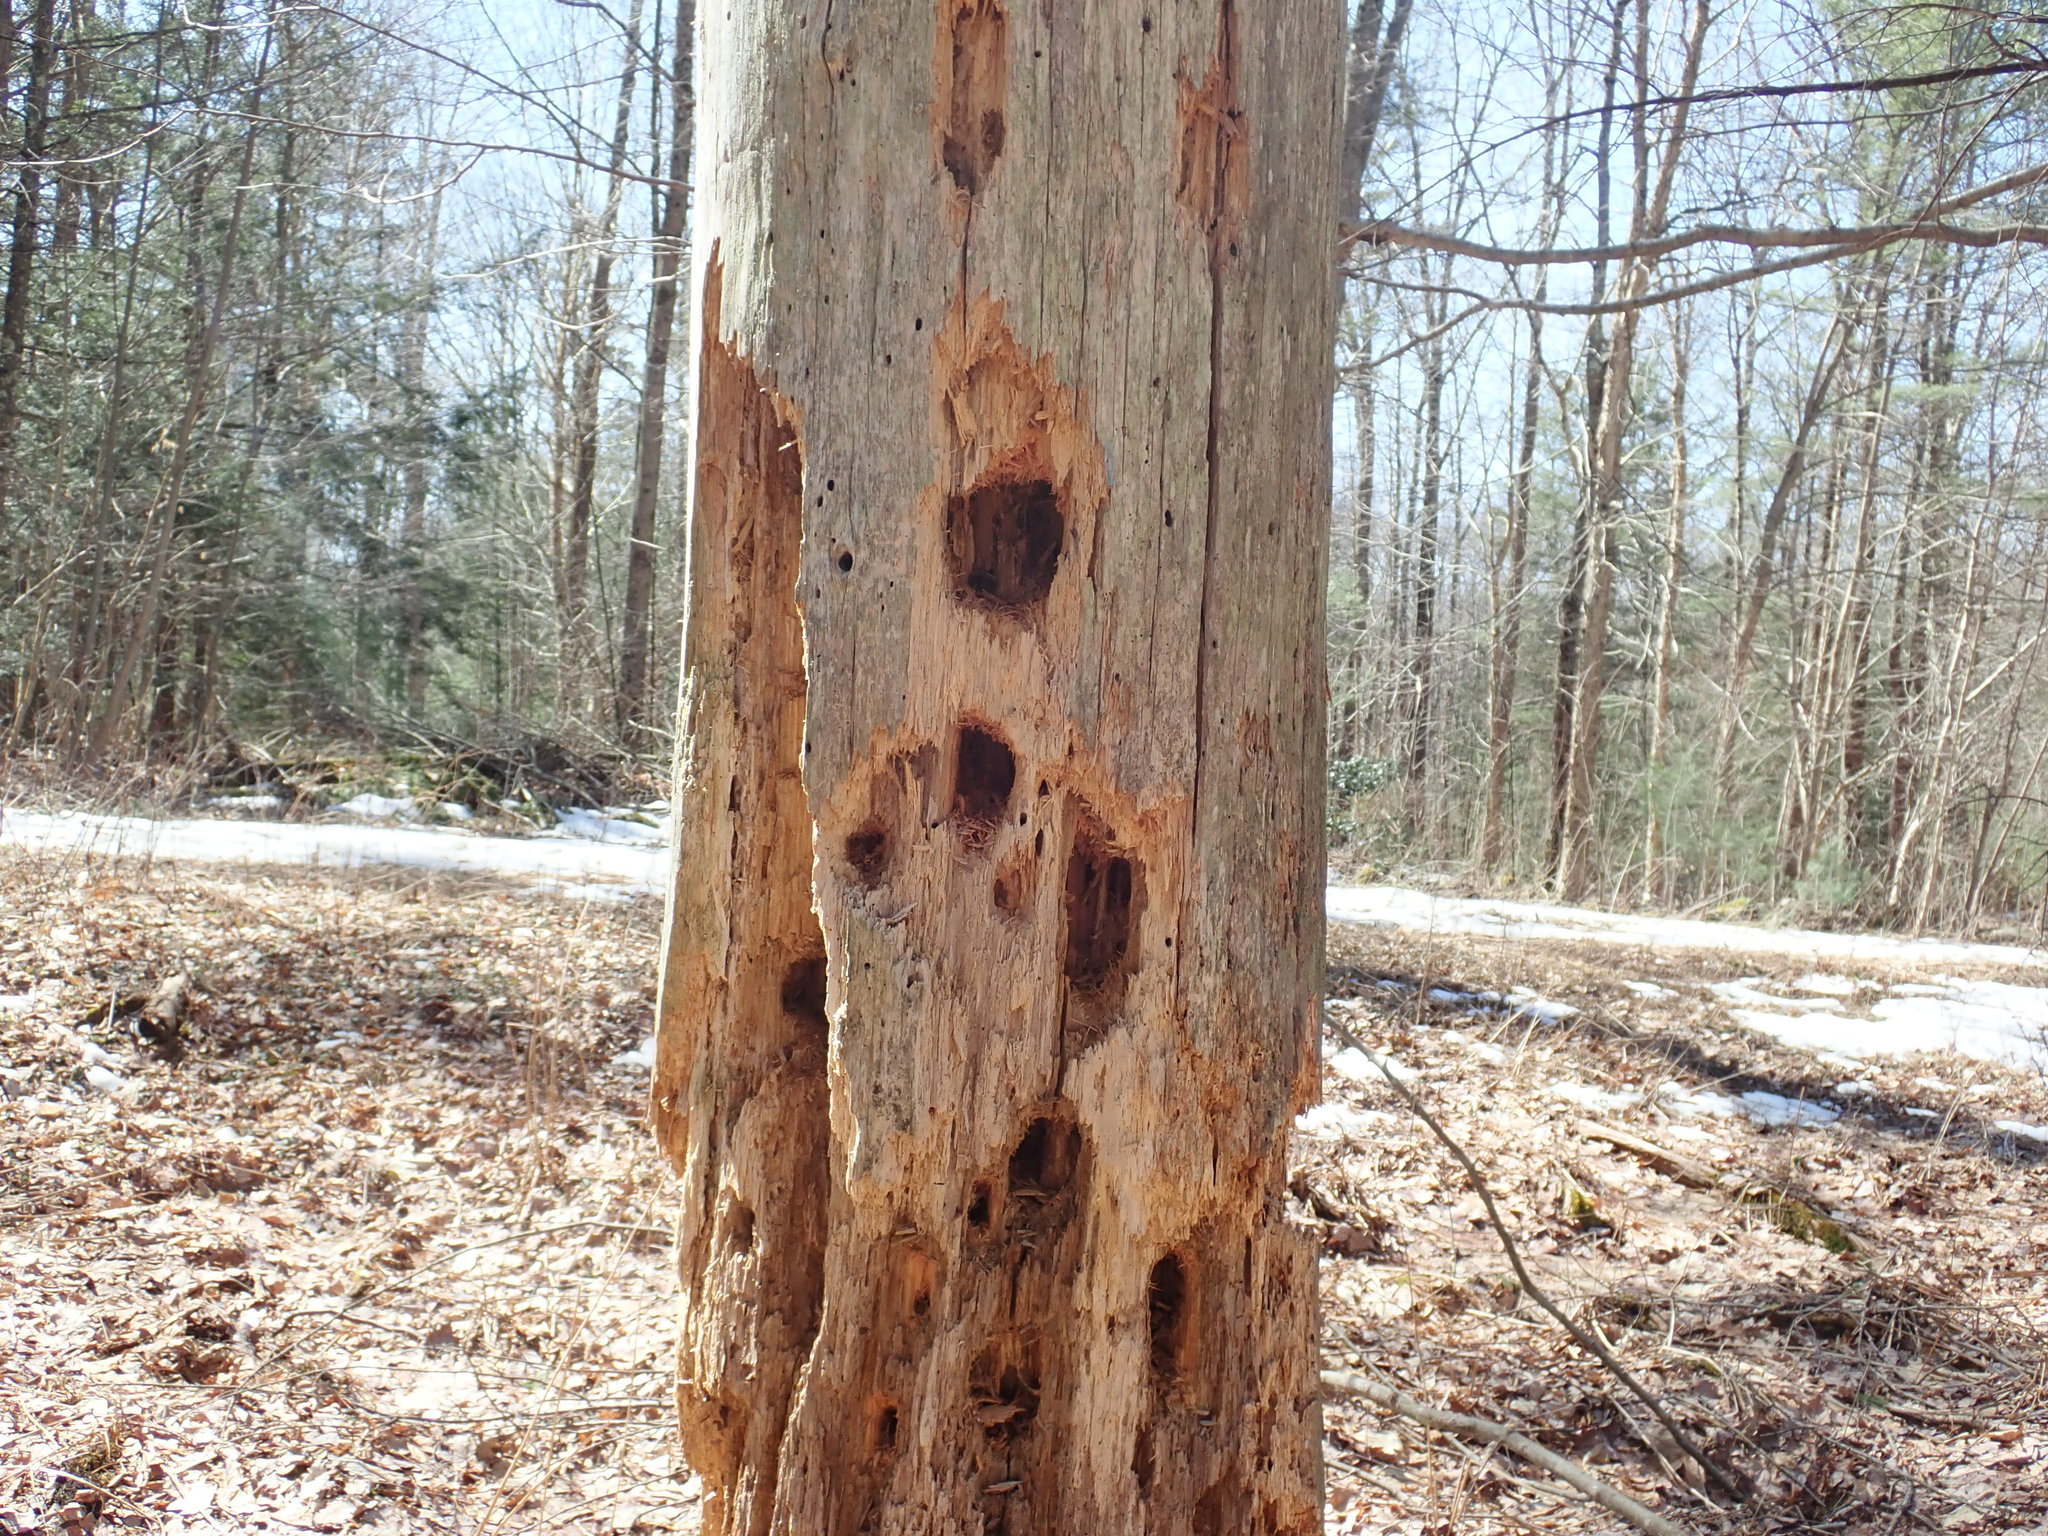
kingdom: Animalia
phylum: Chordata
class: Aves
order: Piciformes
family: Picidae
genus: Dryocopus
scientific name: Dryocopus pileatus
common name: Pileated woodpecker
